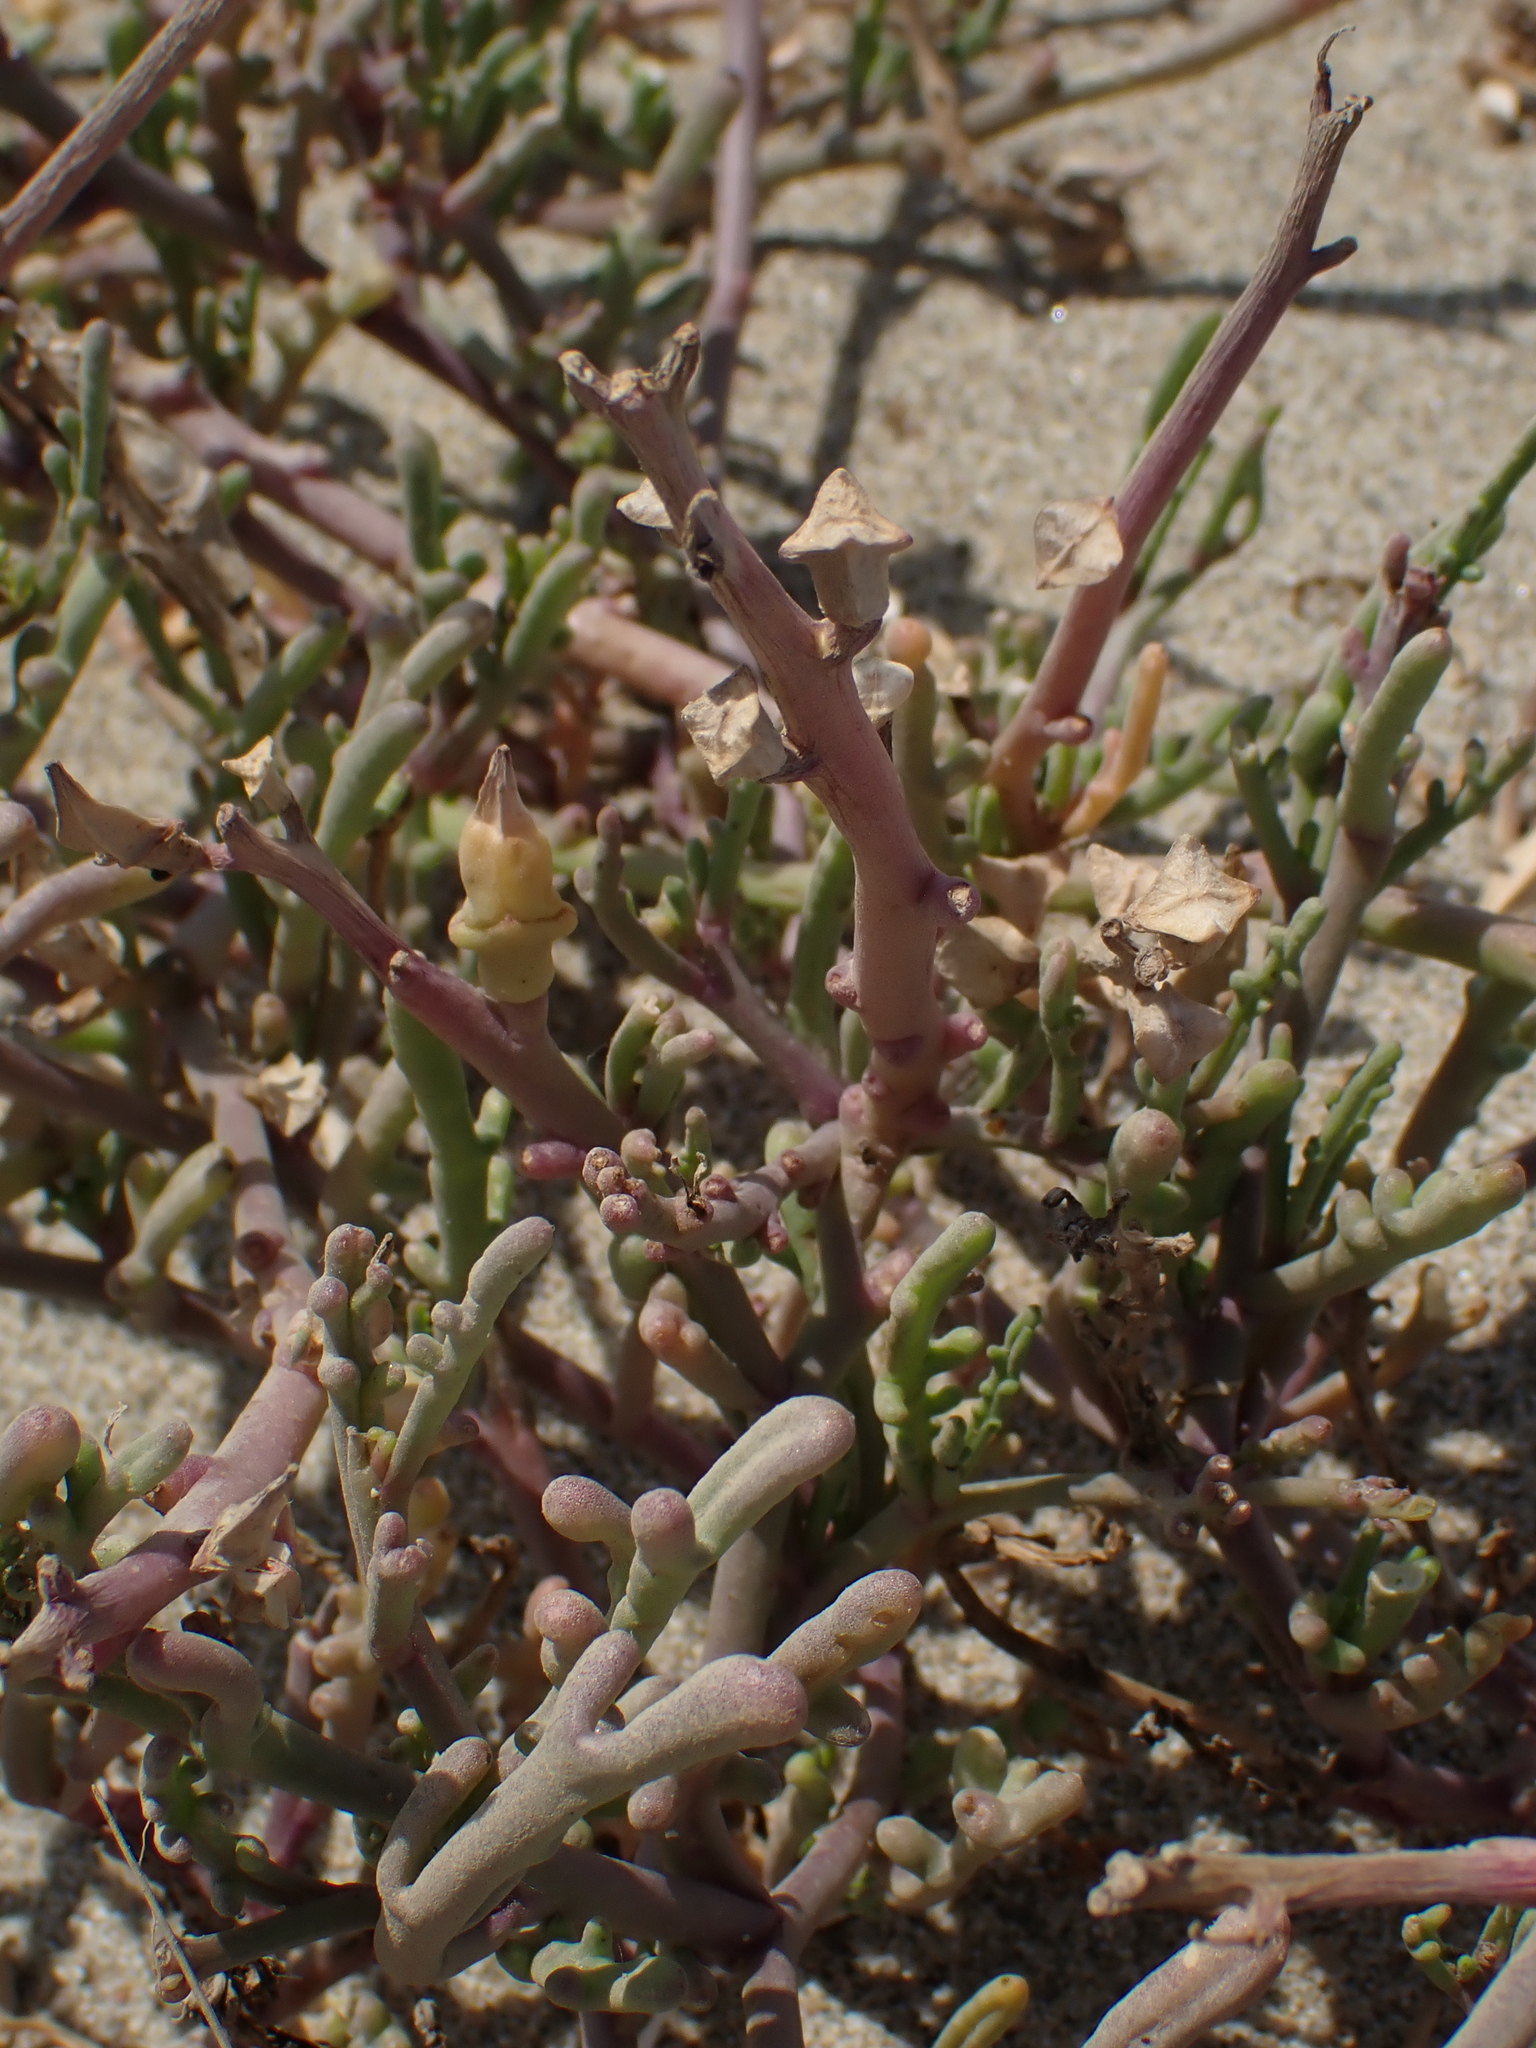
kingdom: Plantae
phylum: Tracheophyta
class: Magnoliopsida
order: Brassicales
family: Brassicaceae
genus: Cakile
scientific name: Cakile maritima
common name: Sea rocket
